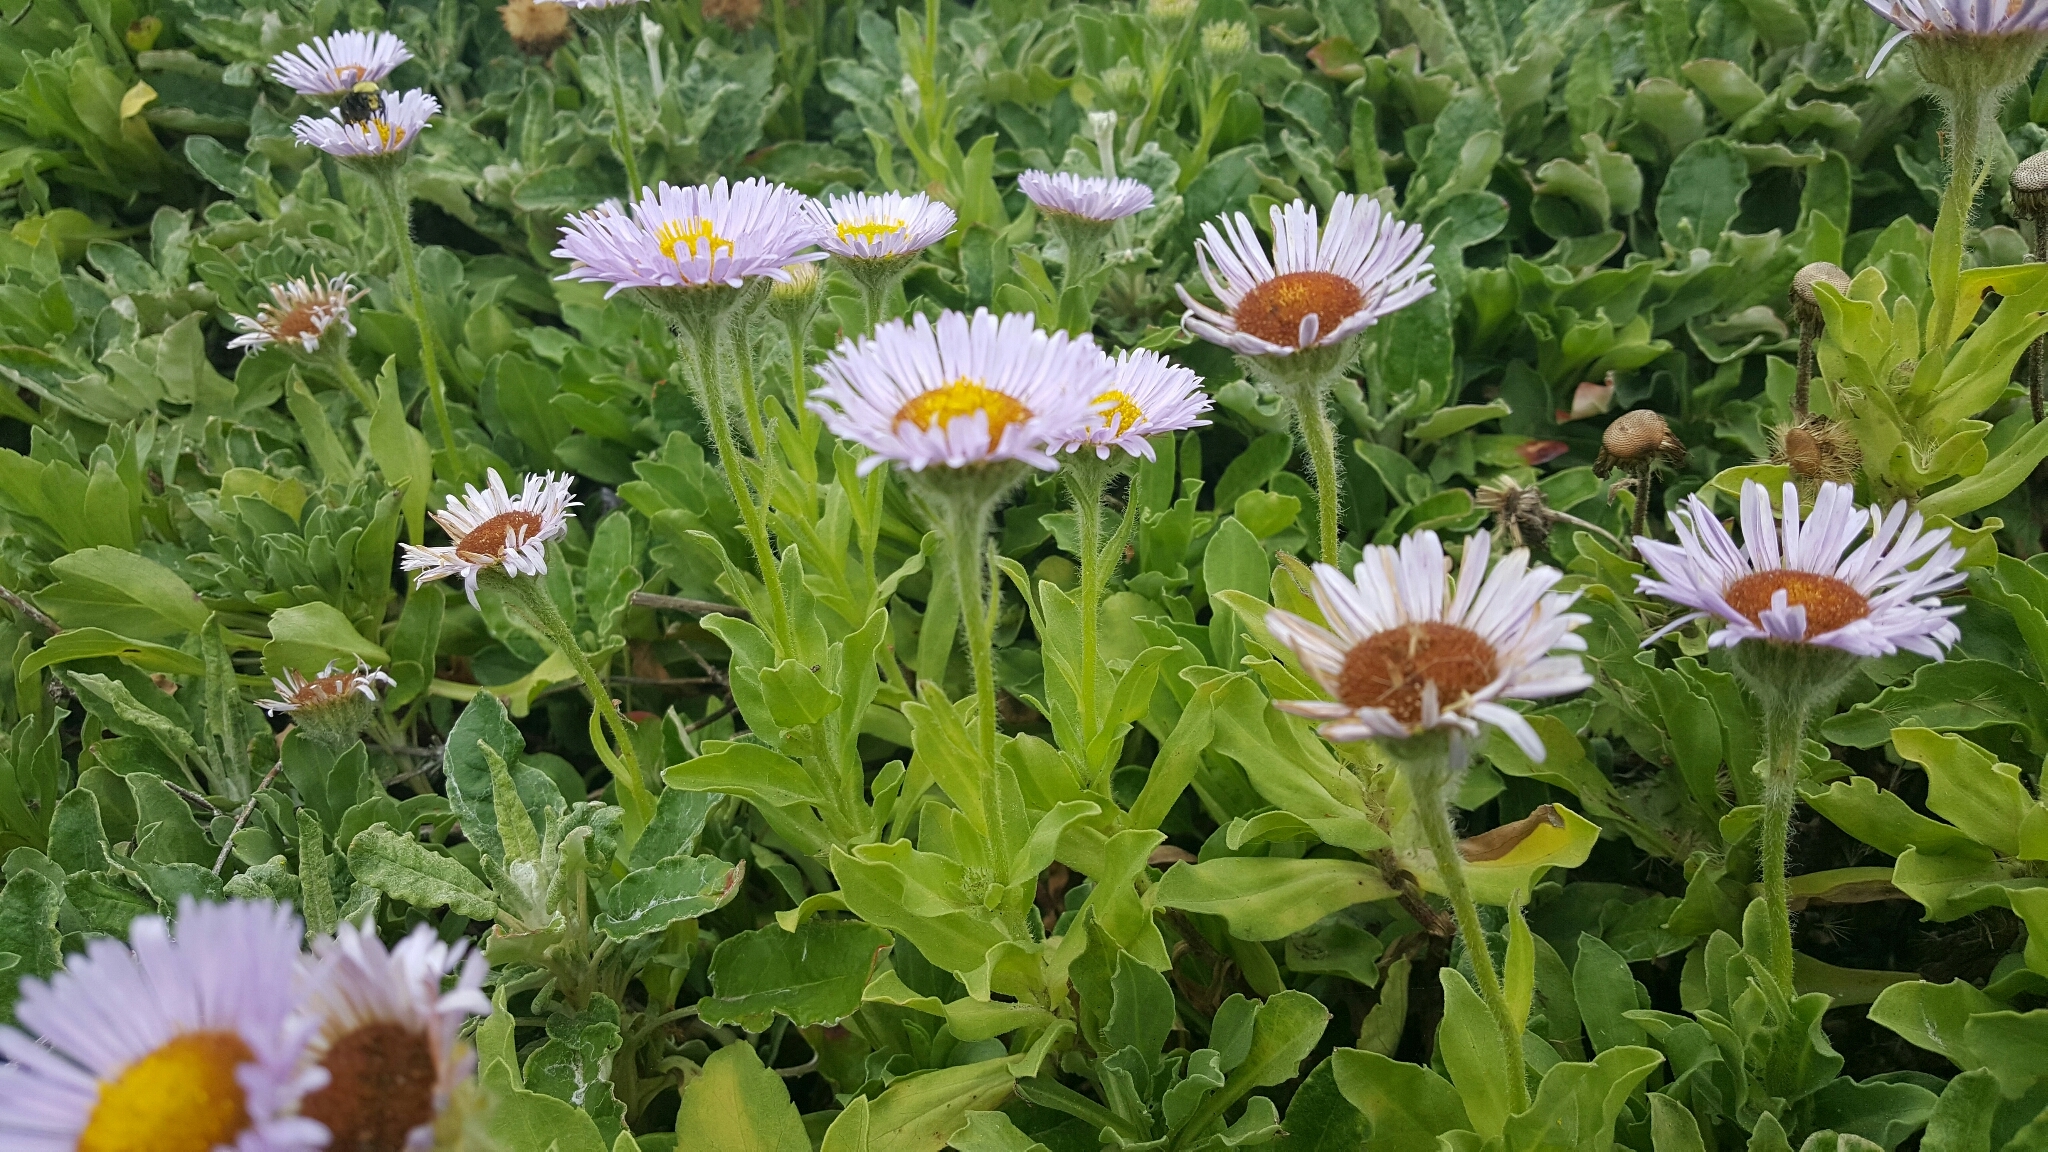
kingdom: Plantae
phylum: Tracheophyta
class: Magnoliopsida
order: Asterales
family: Asteraceae
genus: Erigeron
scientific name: Erigeron glaucus
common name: Seaside daisy
